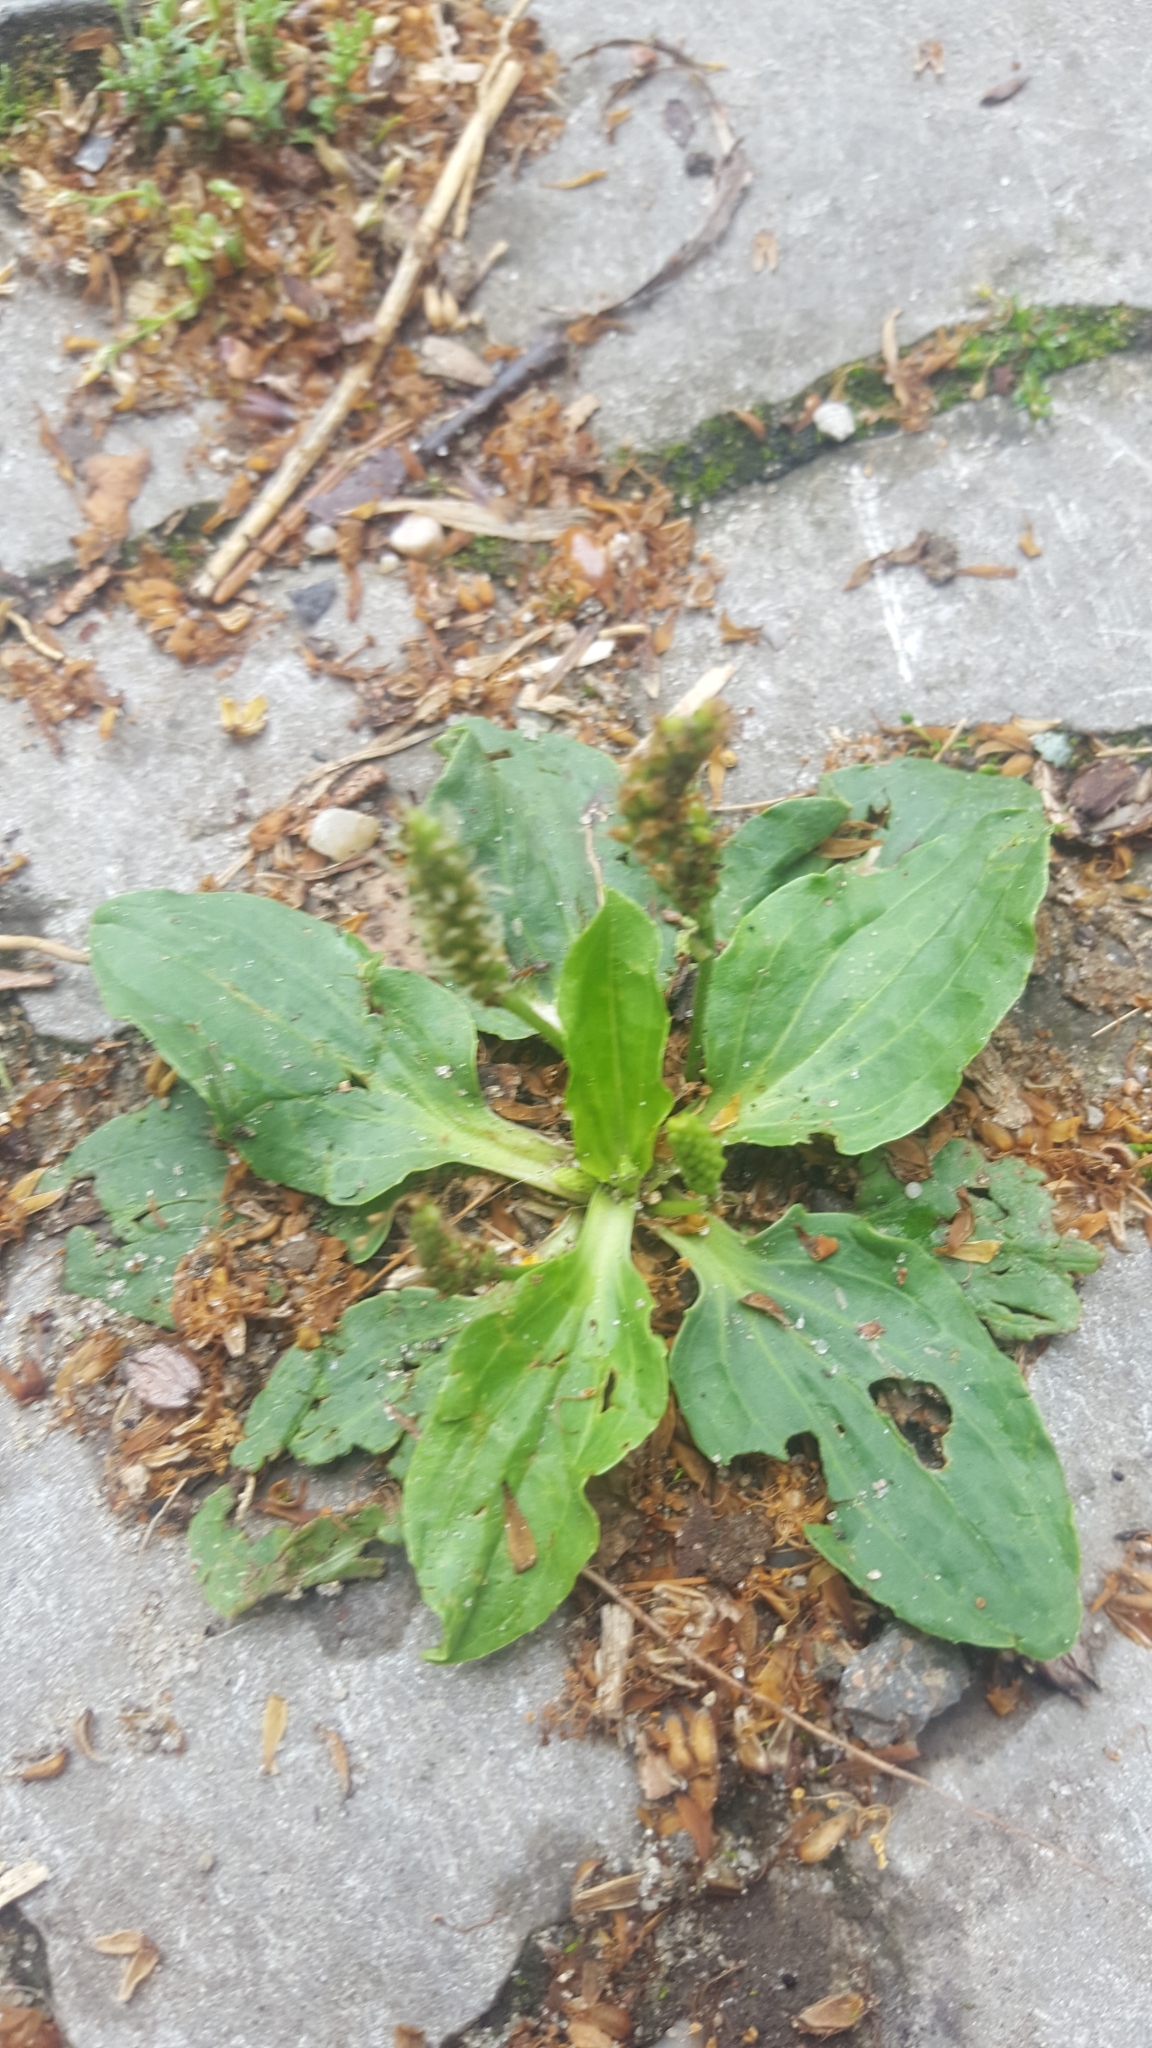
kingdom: Plantae
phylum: Tracheophyta
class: Magnoliopsida
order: Lamiales
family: Plantaginaceae
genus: Plantago
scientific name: Plantago major
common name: Common plantain
